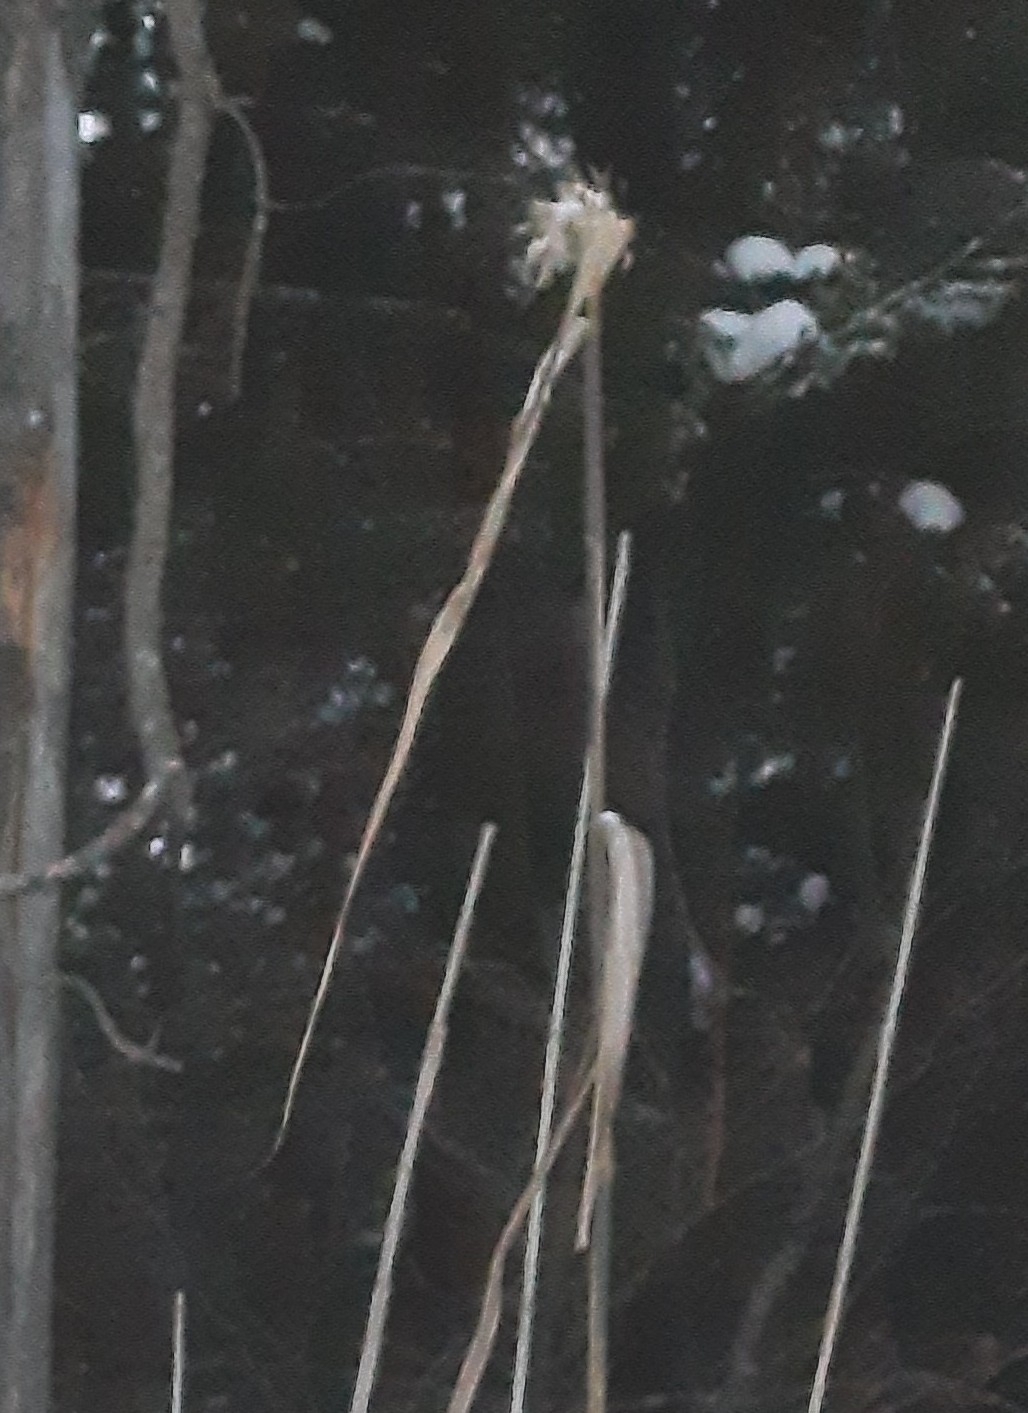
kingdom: Plantae
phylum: Tracheophyta
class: Liliopsida
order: Poales
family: Poaceae
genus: Phragmites
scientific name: Phragmites australis
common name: Common reed
